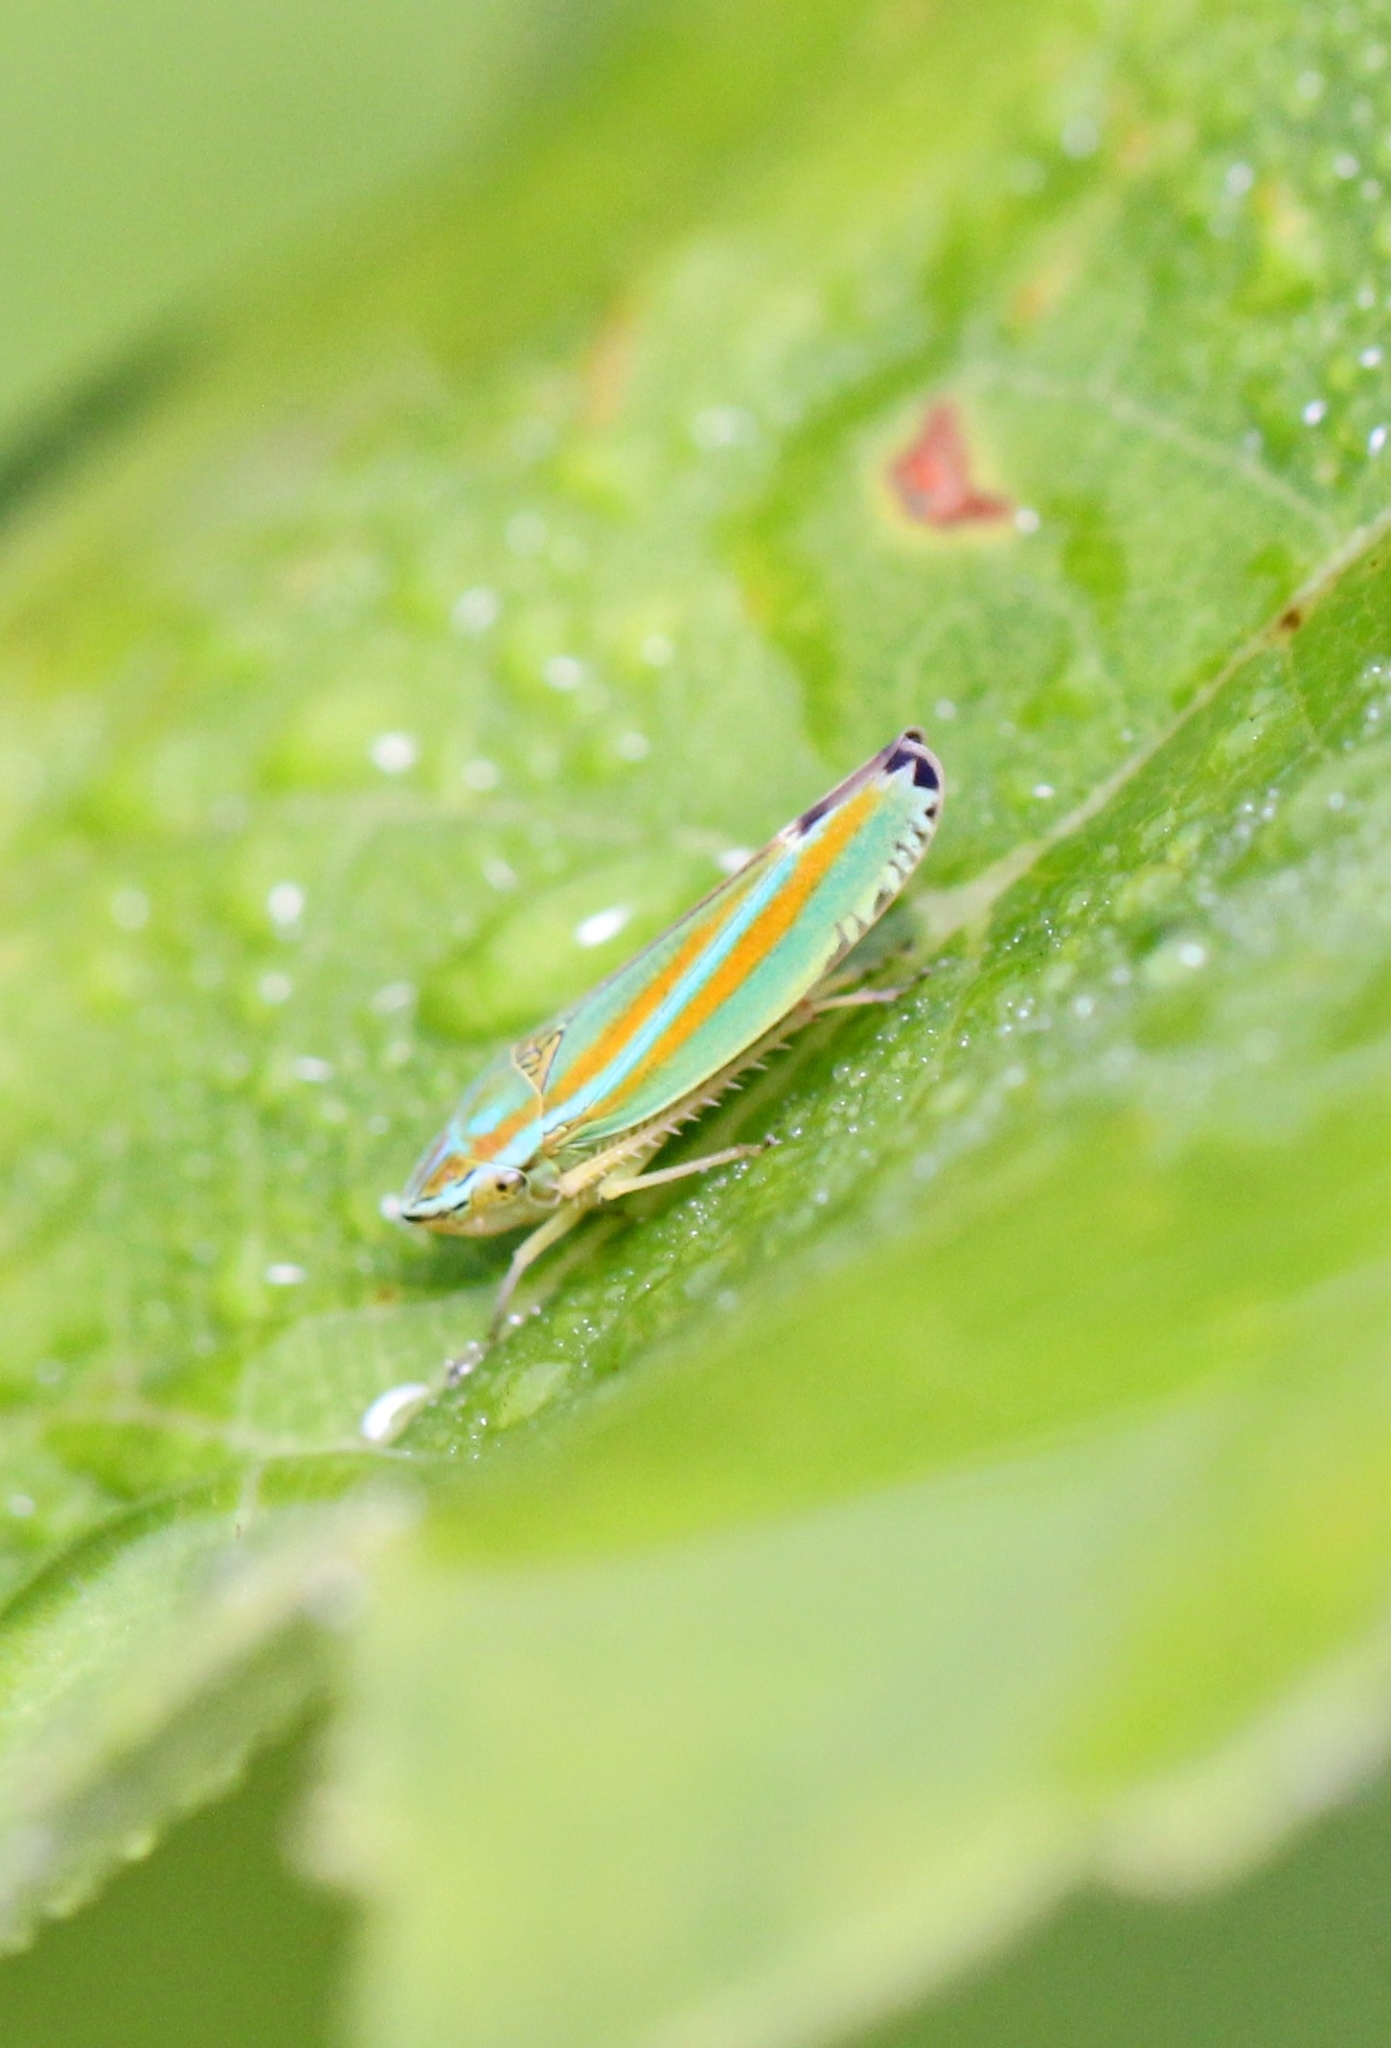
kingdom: Animalia
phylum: Arthropoda
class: Insecta
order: Hemiptera
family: Cicadellidae
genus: Graphocephala
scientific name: Graphocephala versuta
